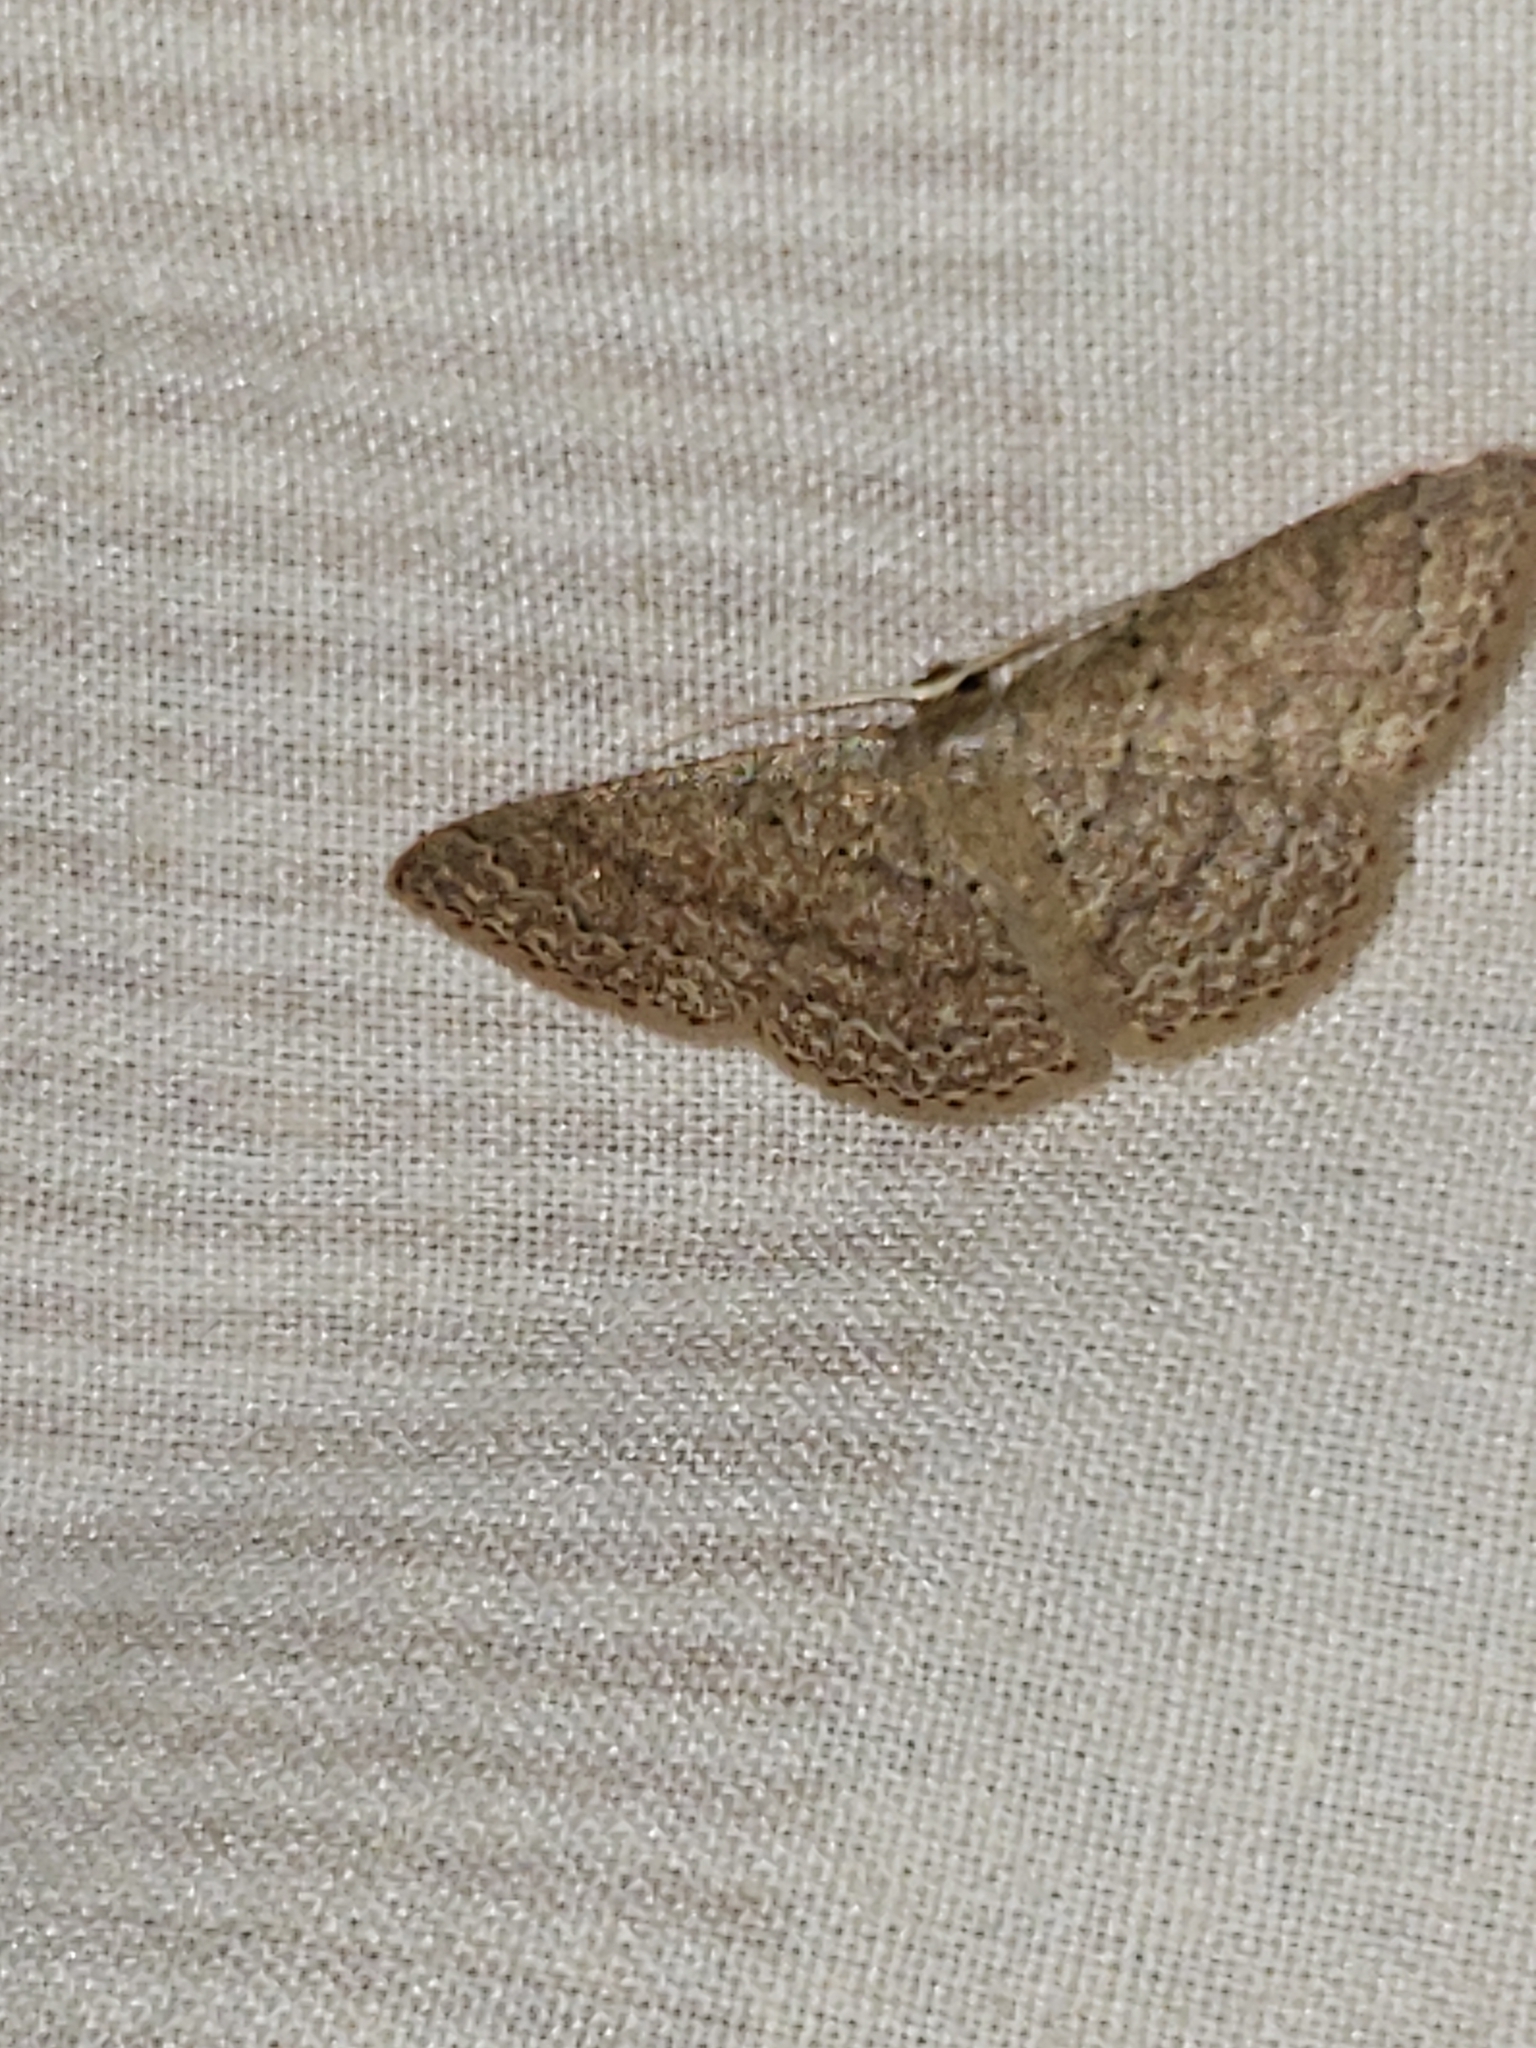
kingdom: Animalia
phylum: Arthropoda
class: Insecta
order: Lepidoptera
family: Geometridae
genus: Pleuroprucha
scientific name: Pleuroprucha insulsaria
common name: Common tan wave
